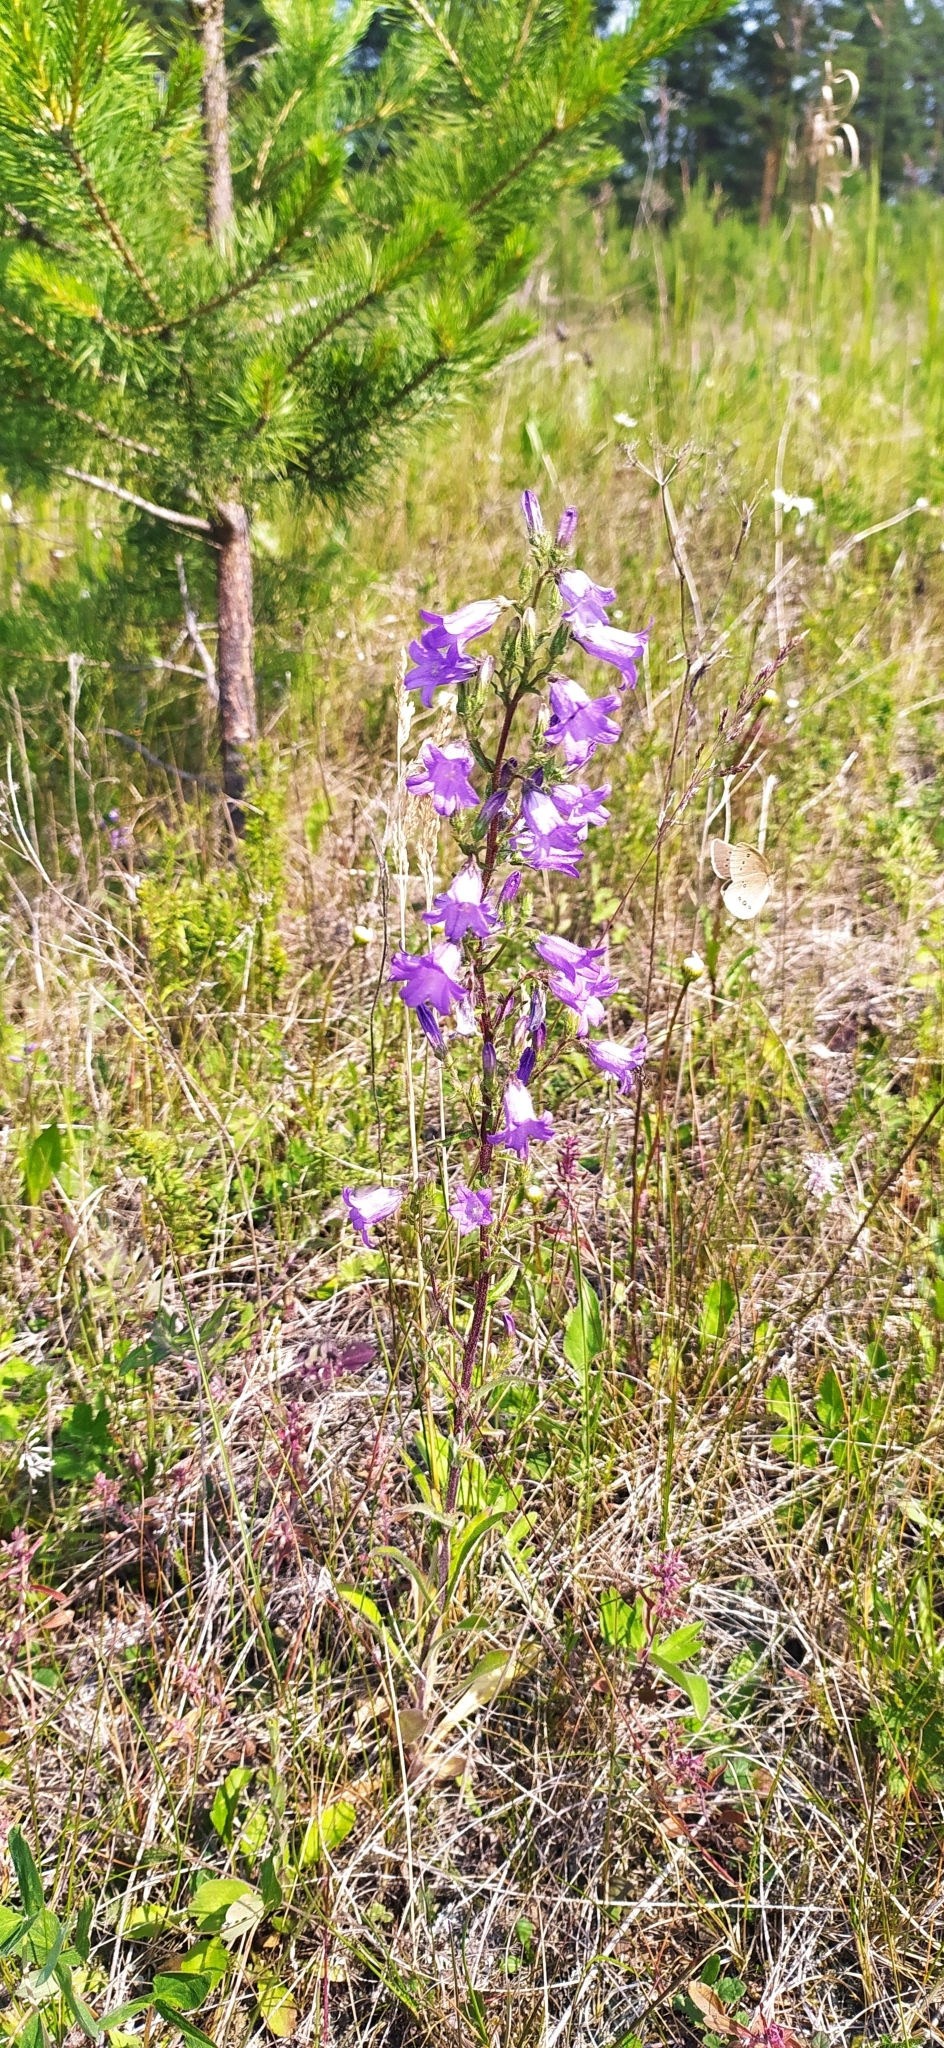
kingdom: Plantae
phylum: Tracheophyta
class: Magnoliopsida
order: Asterales
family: Campanulaceae
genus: Campanula
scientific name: Campanula sibirica
